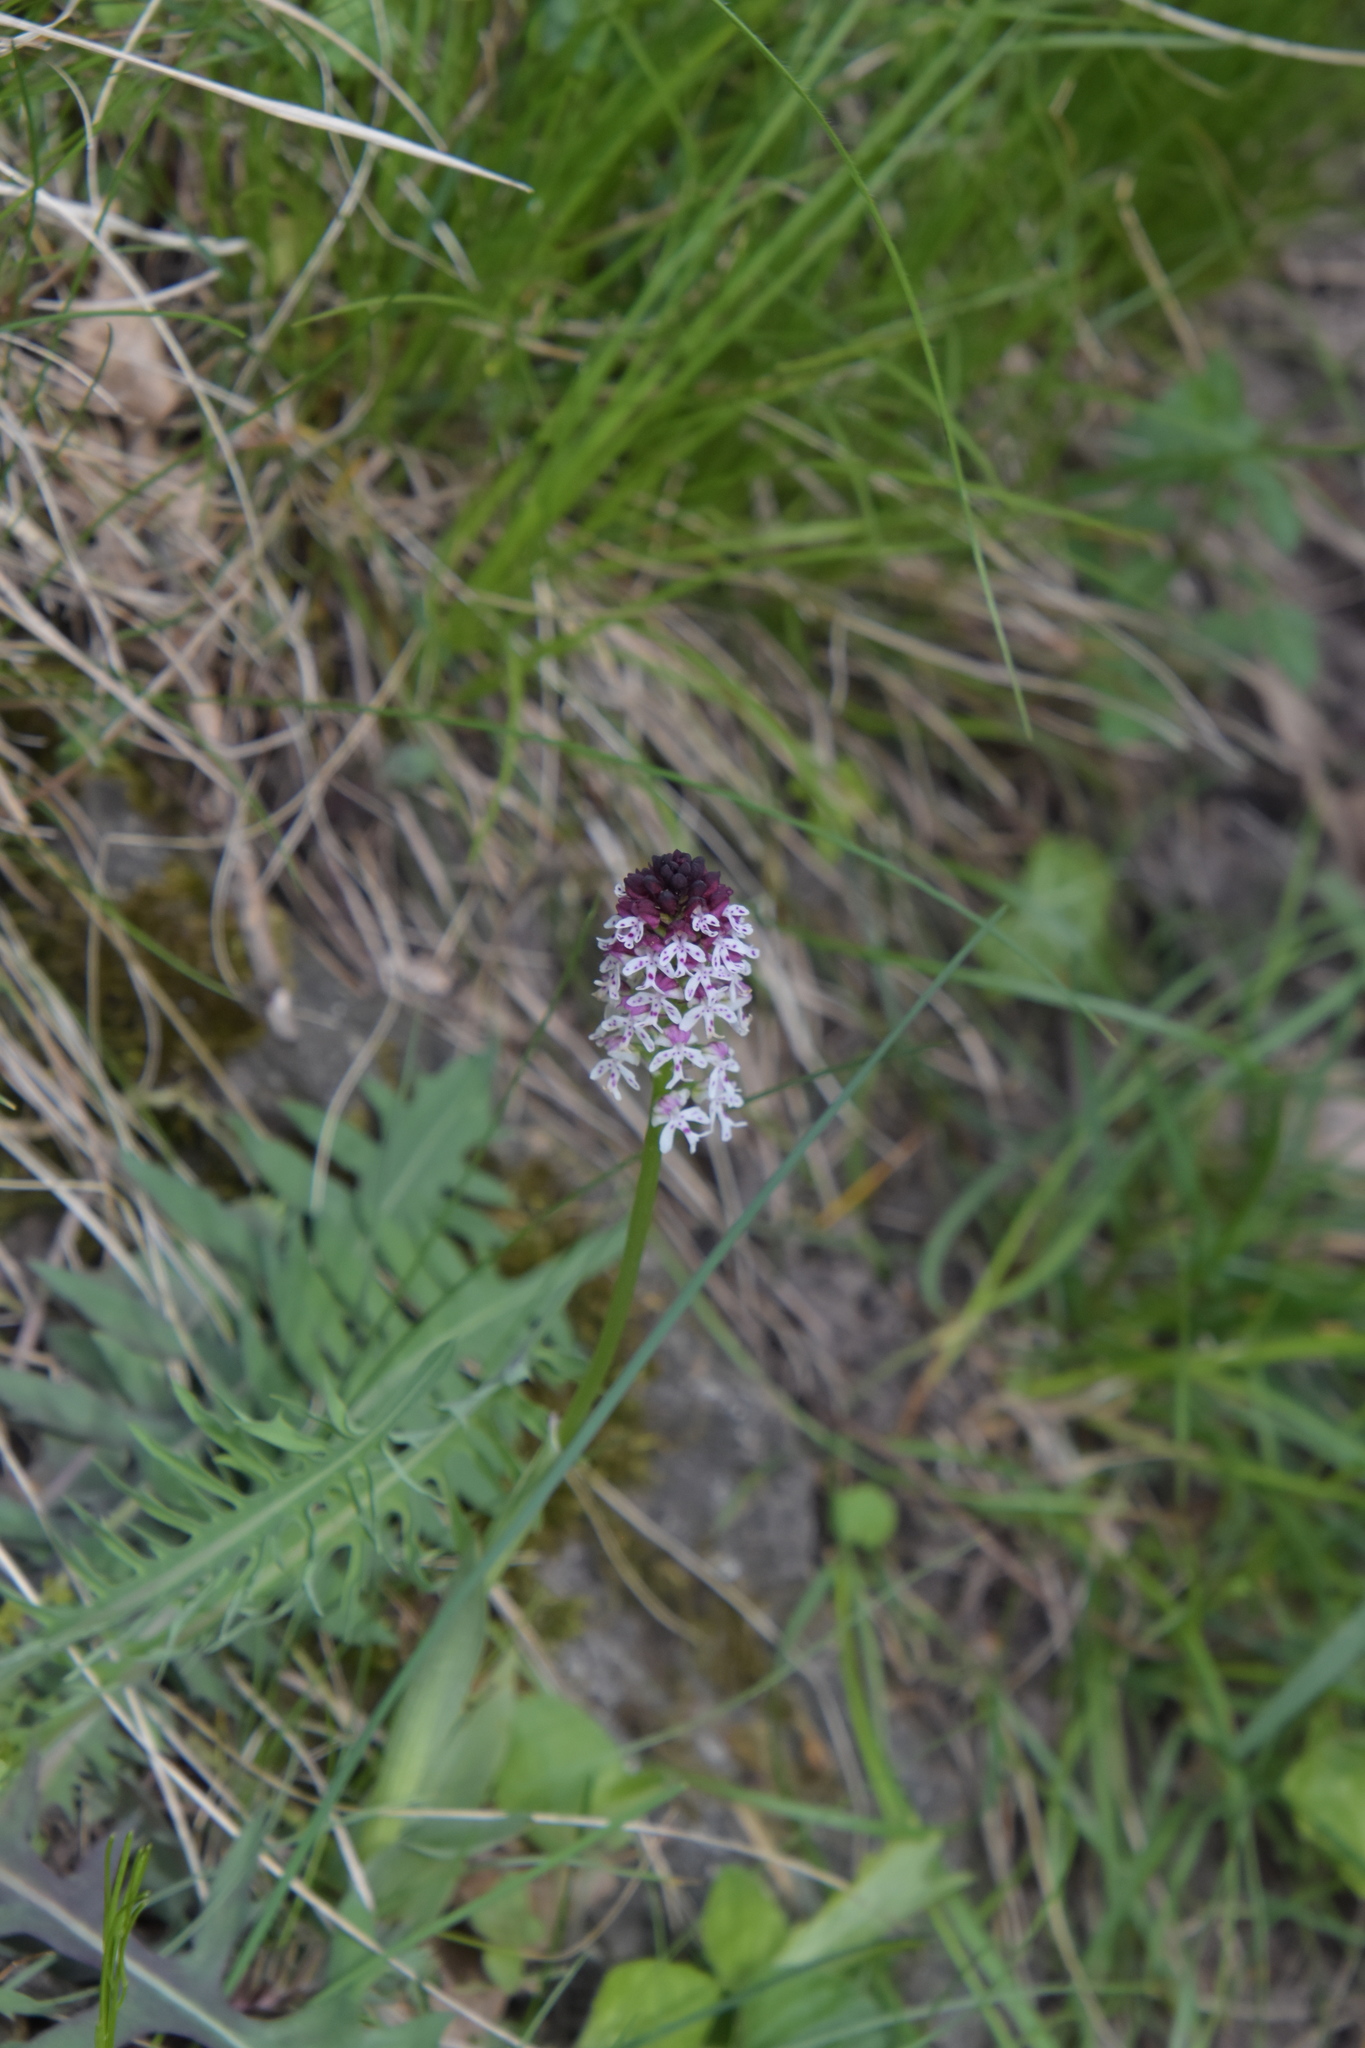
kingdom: Plantae
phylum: Tracheophyta
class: Liliopsida
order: Asparagales
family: Orchidaceae
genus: Neotinea
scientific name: Neotinea ustulata
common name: Burnt orchid
